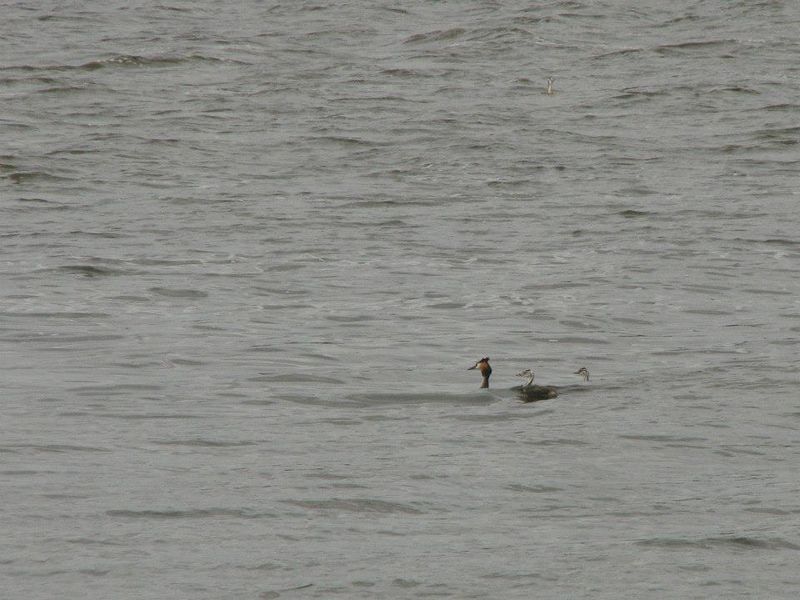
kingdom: Animalia
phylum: Chordata
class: Aves
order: Podicipediformes
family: Podicipedidae
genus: Podiceps
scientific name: Podiceps cristatus
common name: Great crested grebe
